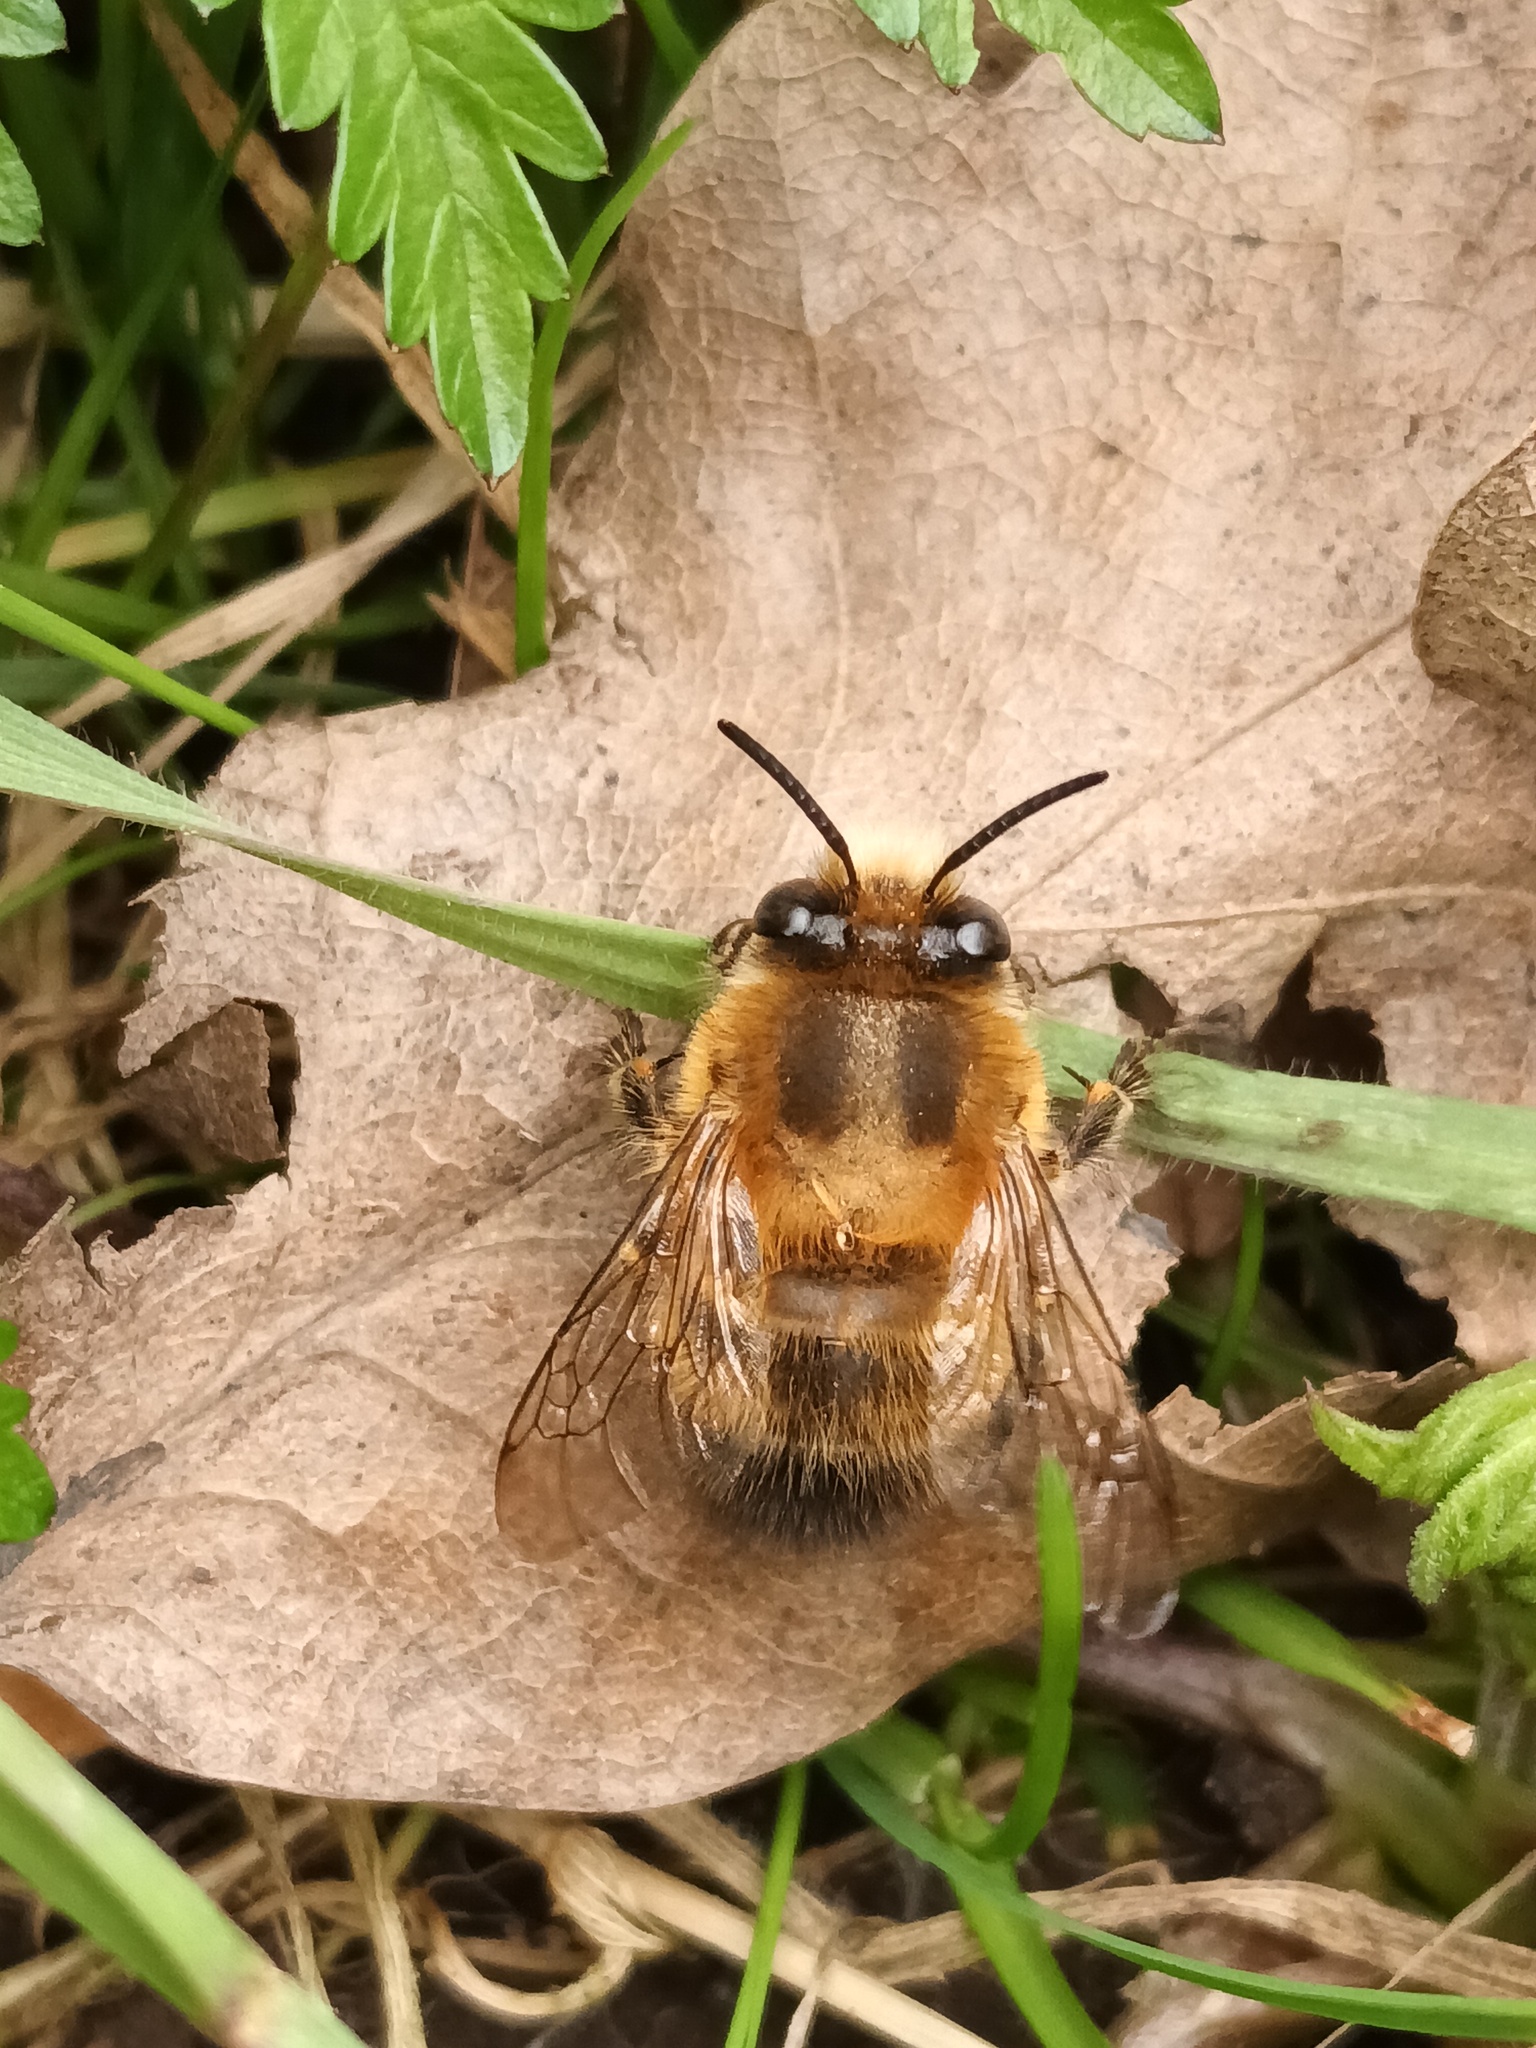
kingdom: Animalia
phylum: Arthropoda
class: Insecta
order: Hymenoptera
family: Apidae
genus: Anthophora
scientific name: Anthophora plumipes
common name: Hairy-footed flower bee
